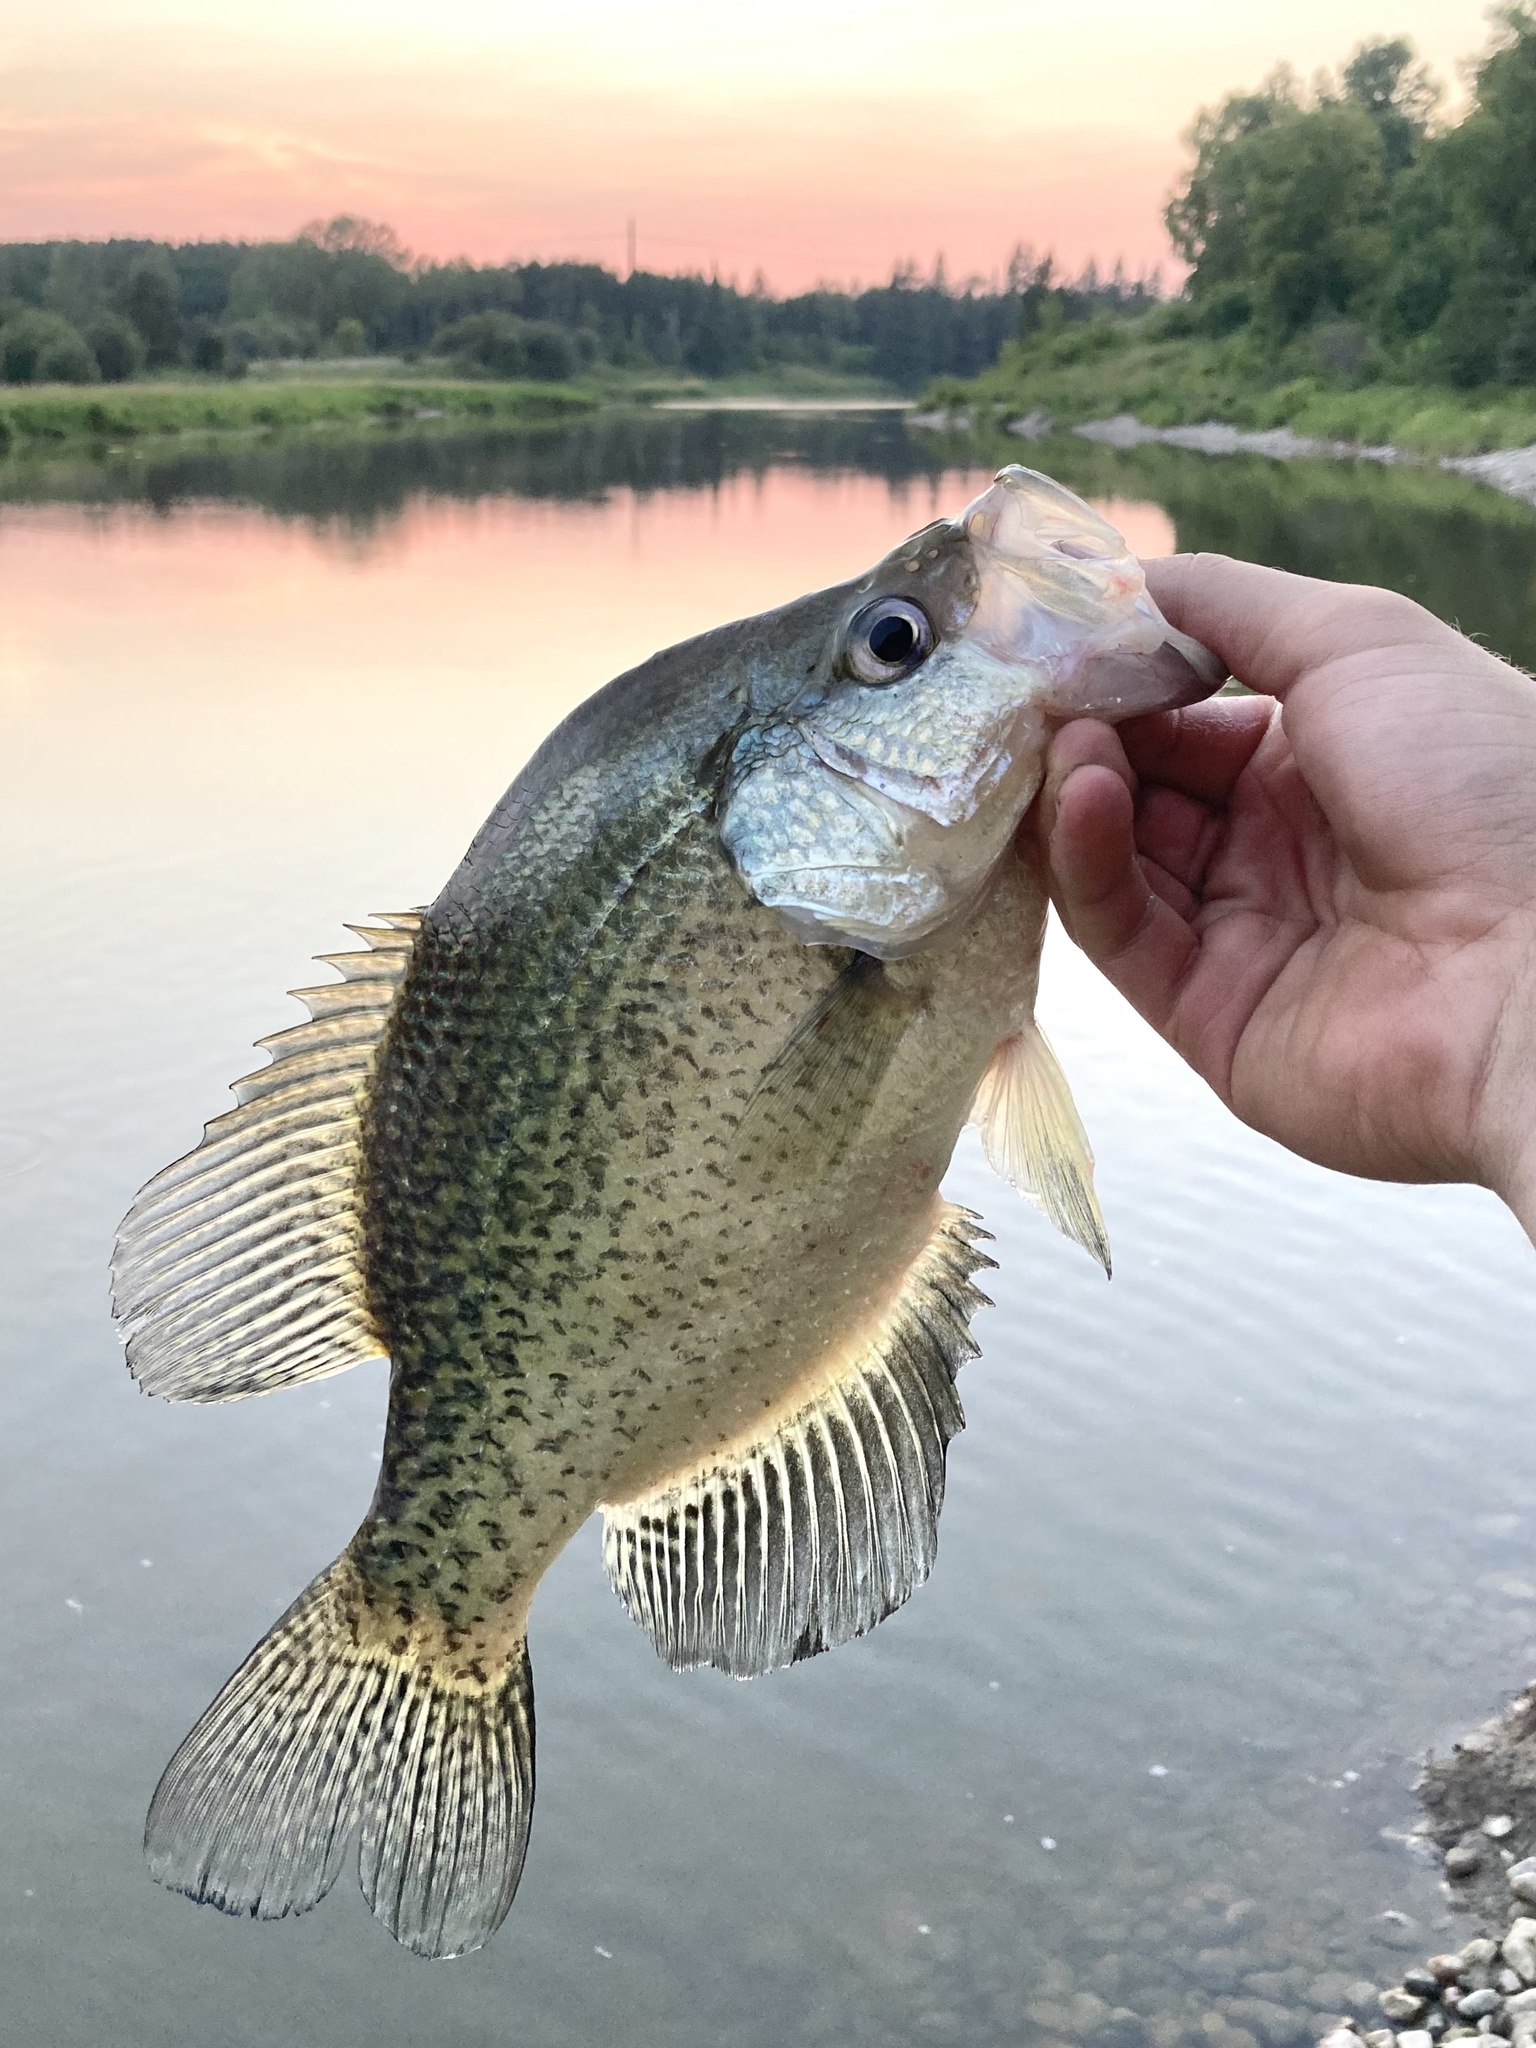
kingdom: Animalia
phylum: Chordata
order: Perciformes
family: Centrarchidae
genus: Pomoxis
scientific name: Pomoxis nigromaculatus
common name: Black crappie
